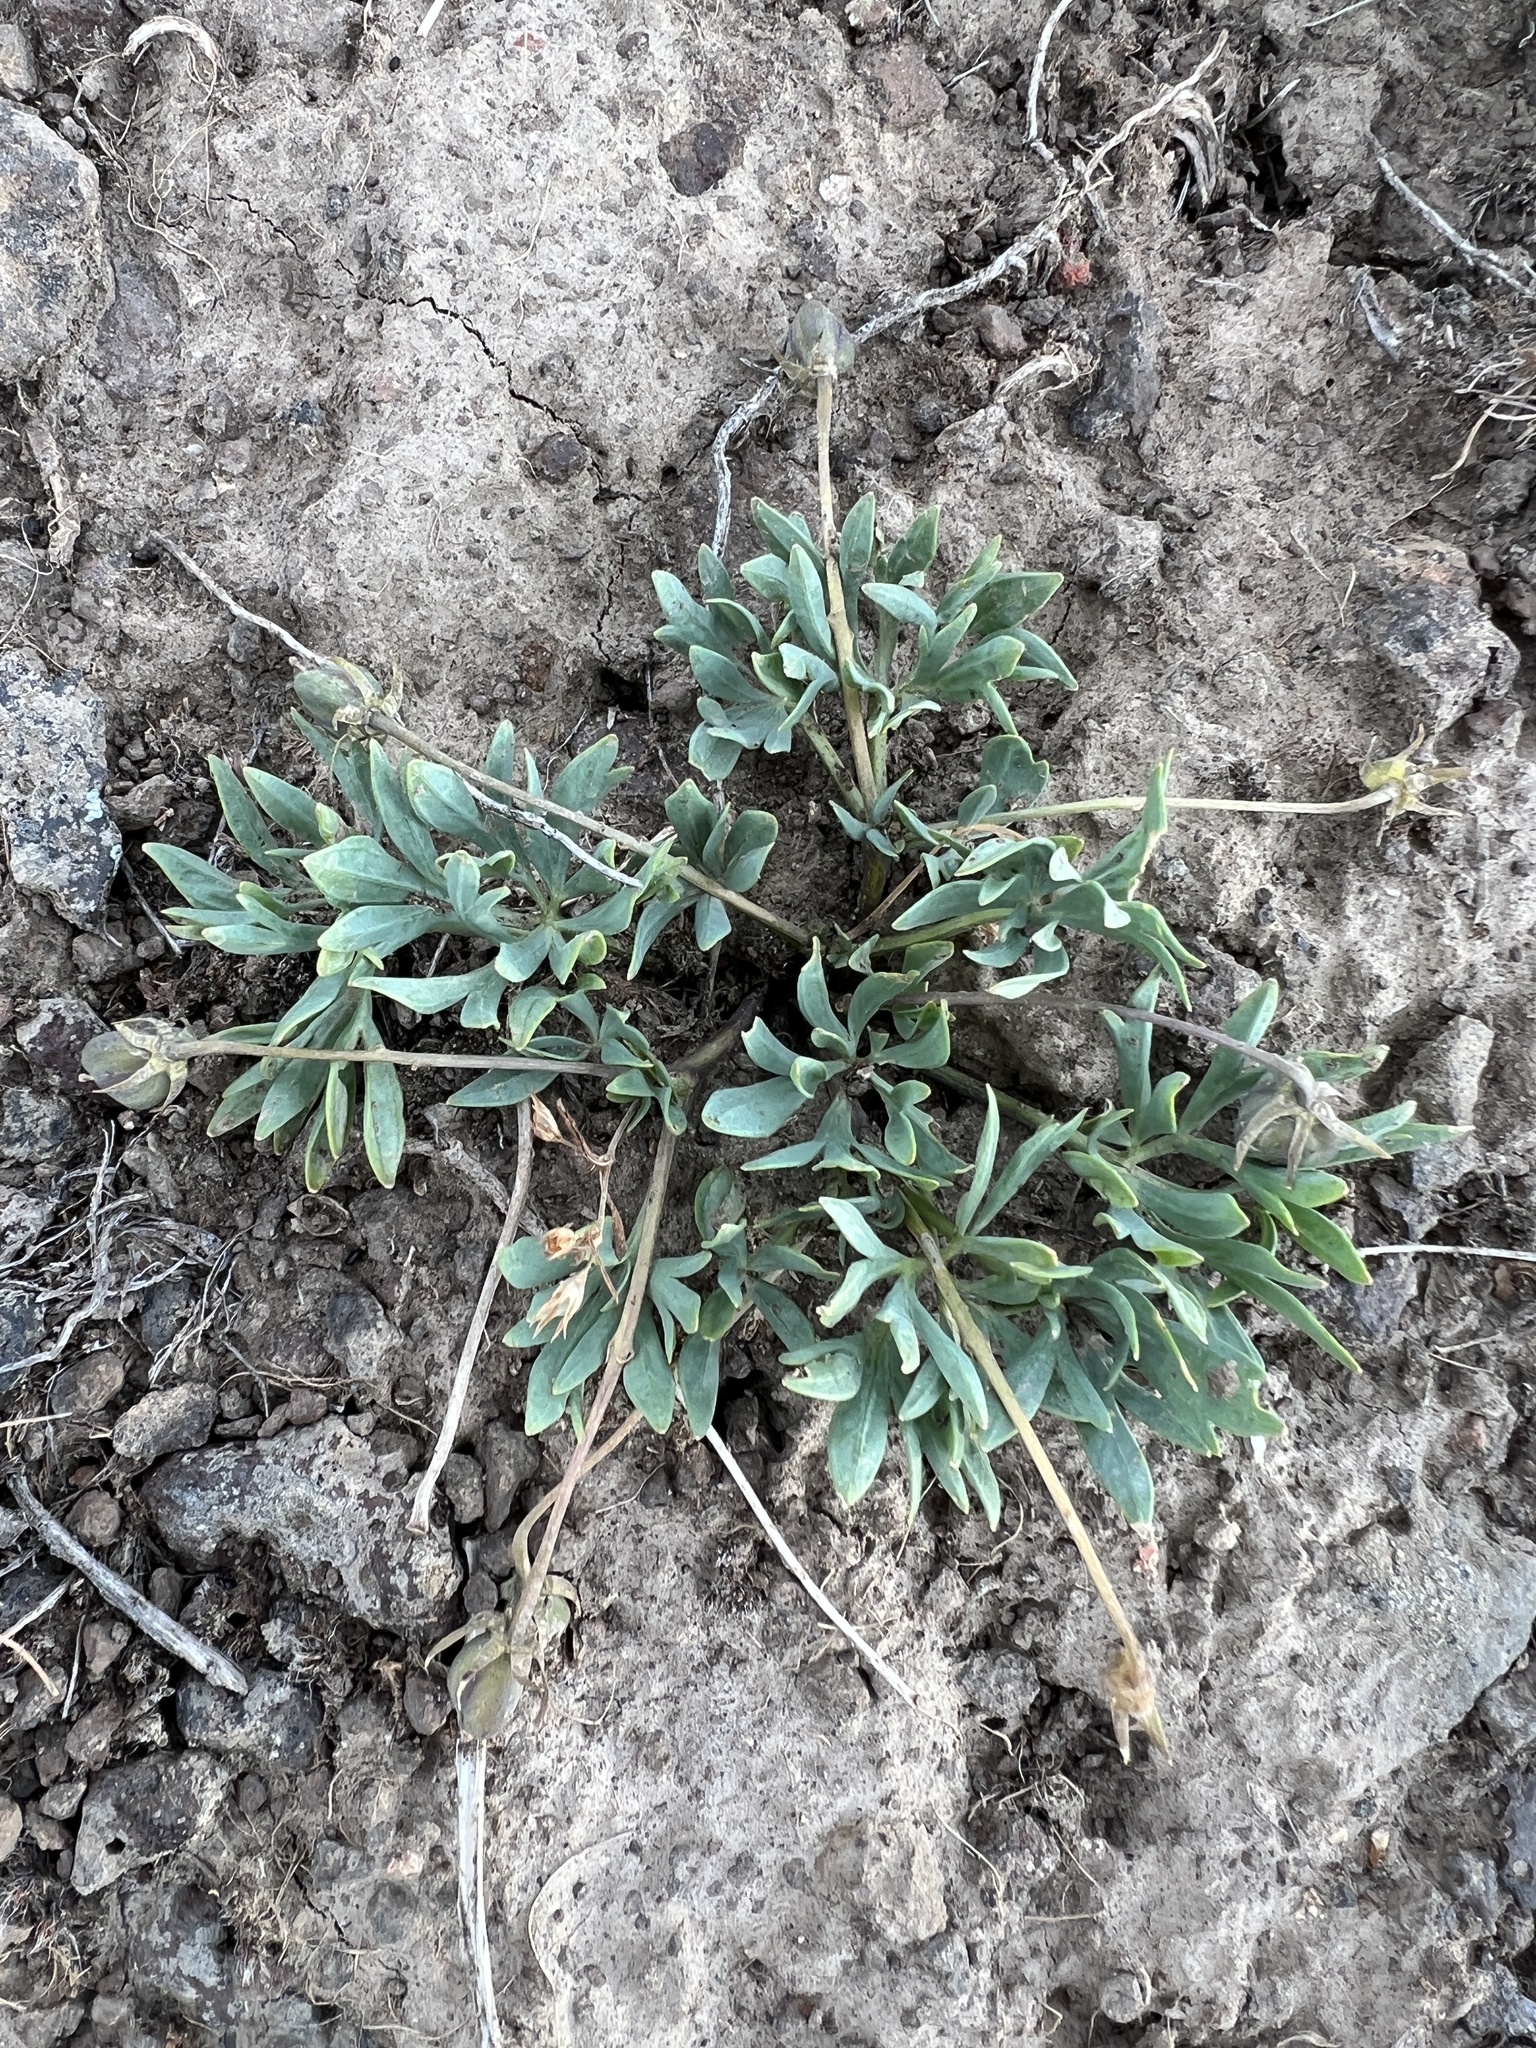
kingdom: Plantae
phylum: Tracheophyta
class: Magnoliopsida
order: Malpighiales
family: Violaceae
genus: Viola
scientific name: Viola trinervata
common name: Sagebrush violet
